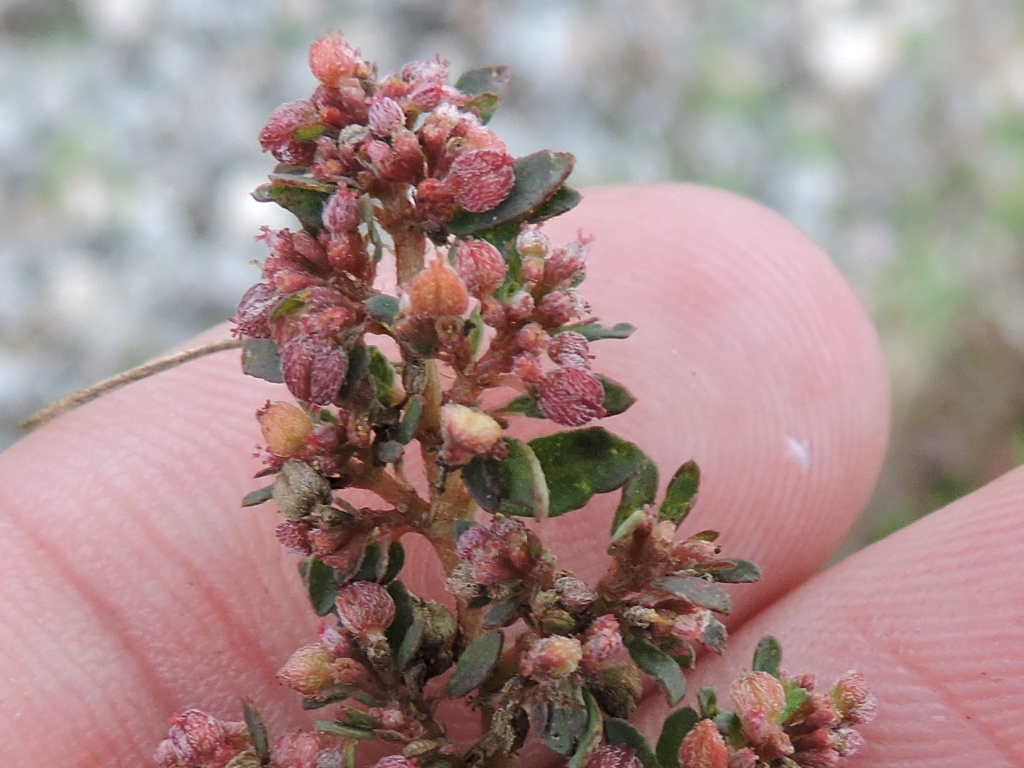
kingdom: Plantae
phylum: Tracheophyta
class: Magnoliopsida
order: Malpighiales
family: Euphorbiaceae
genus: Euphorbia
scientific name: Euphorbia maculata
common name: Spotted spurge
